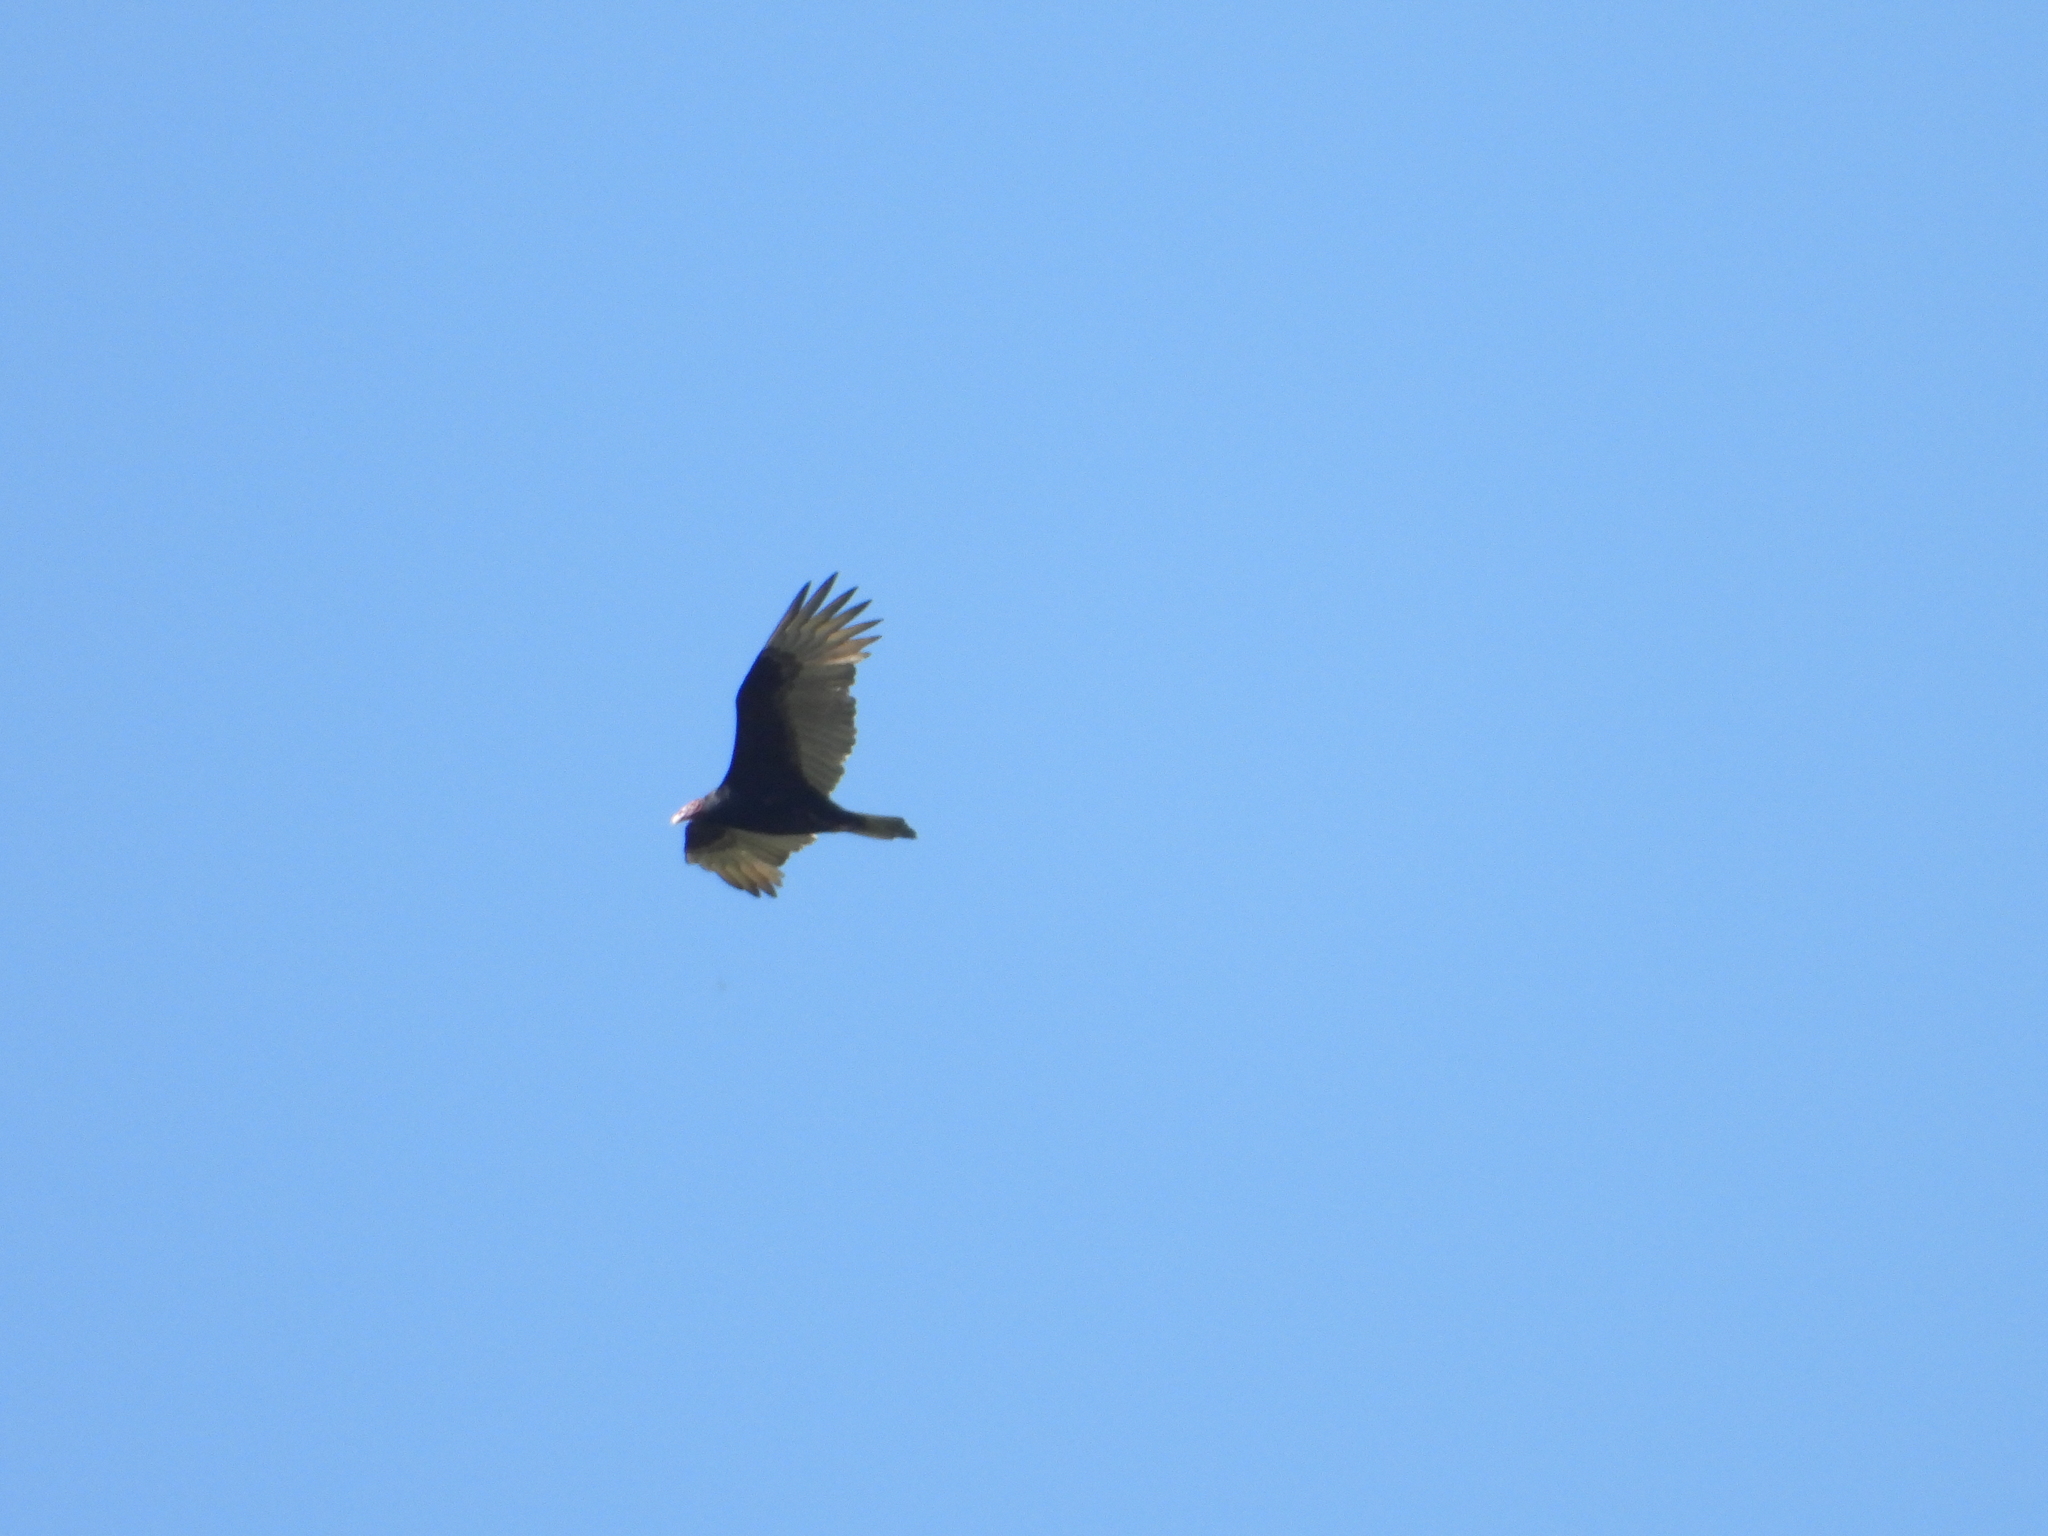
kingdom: Animalia
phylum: Chordata
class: Aves
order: Accipitriformes
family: Cathartidae
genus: Cathartes
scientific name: Cathartes aura
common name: Turkey vulture
